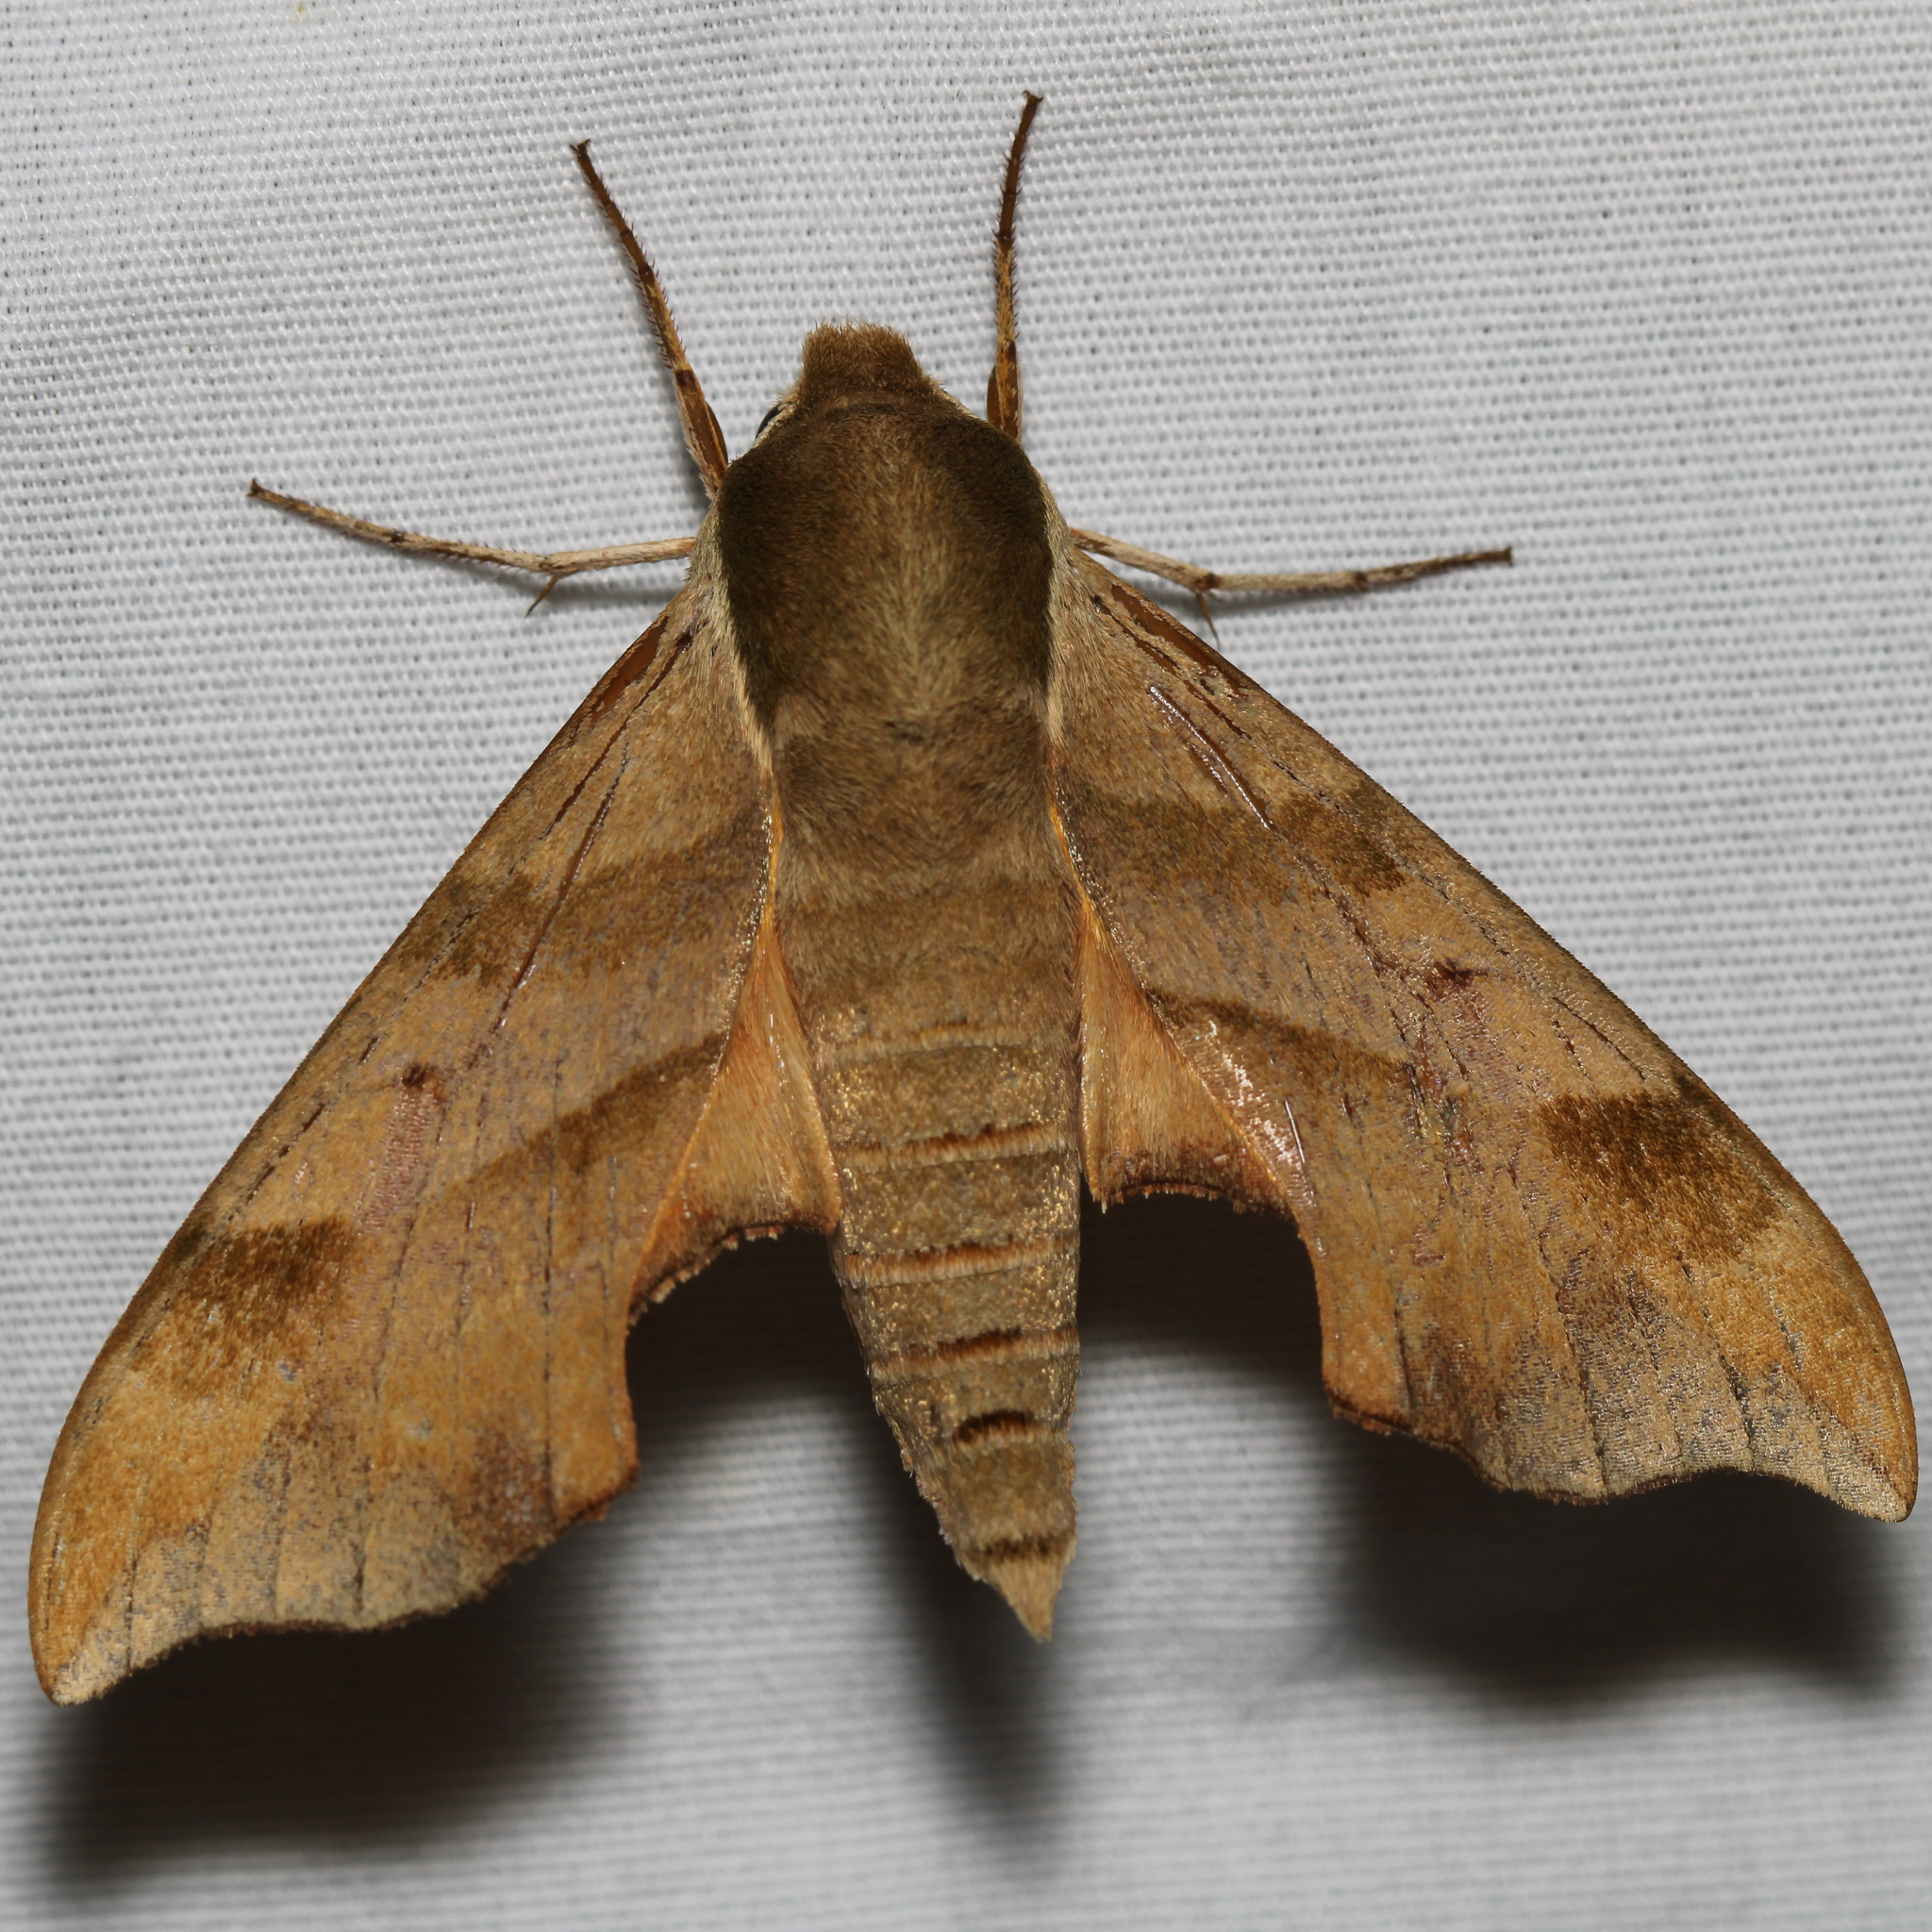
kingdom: Animalia
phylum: Arthropoda
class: Insecta
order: Lepidoptera
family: Sphingidae
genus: Darapsa
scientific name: Darapsa myron
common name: Hog sphinx
